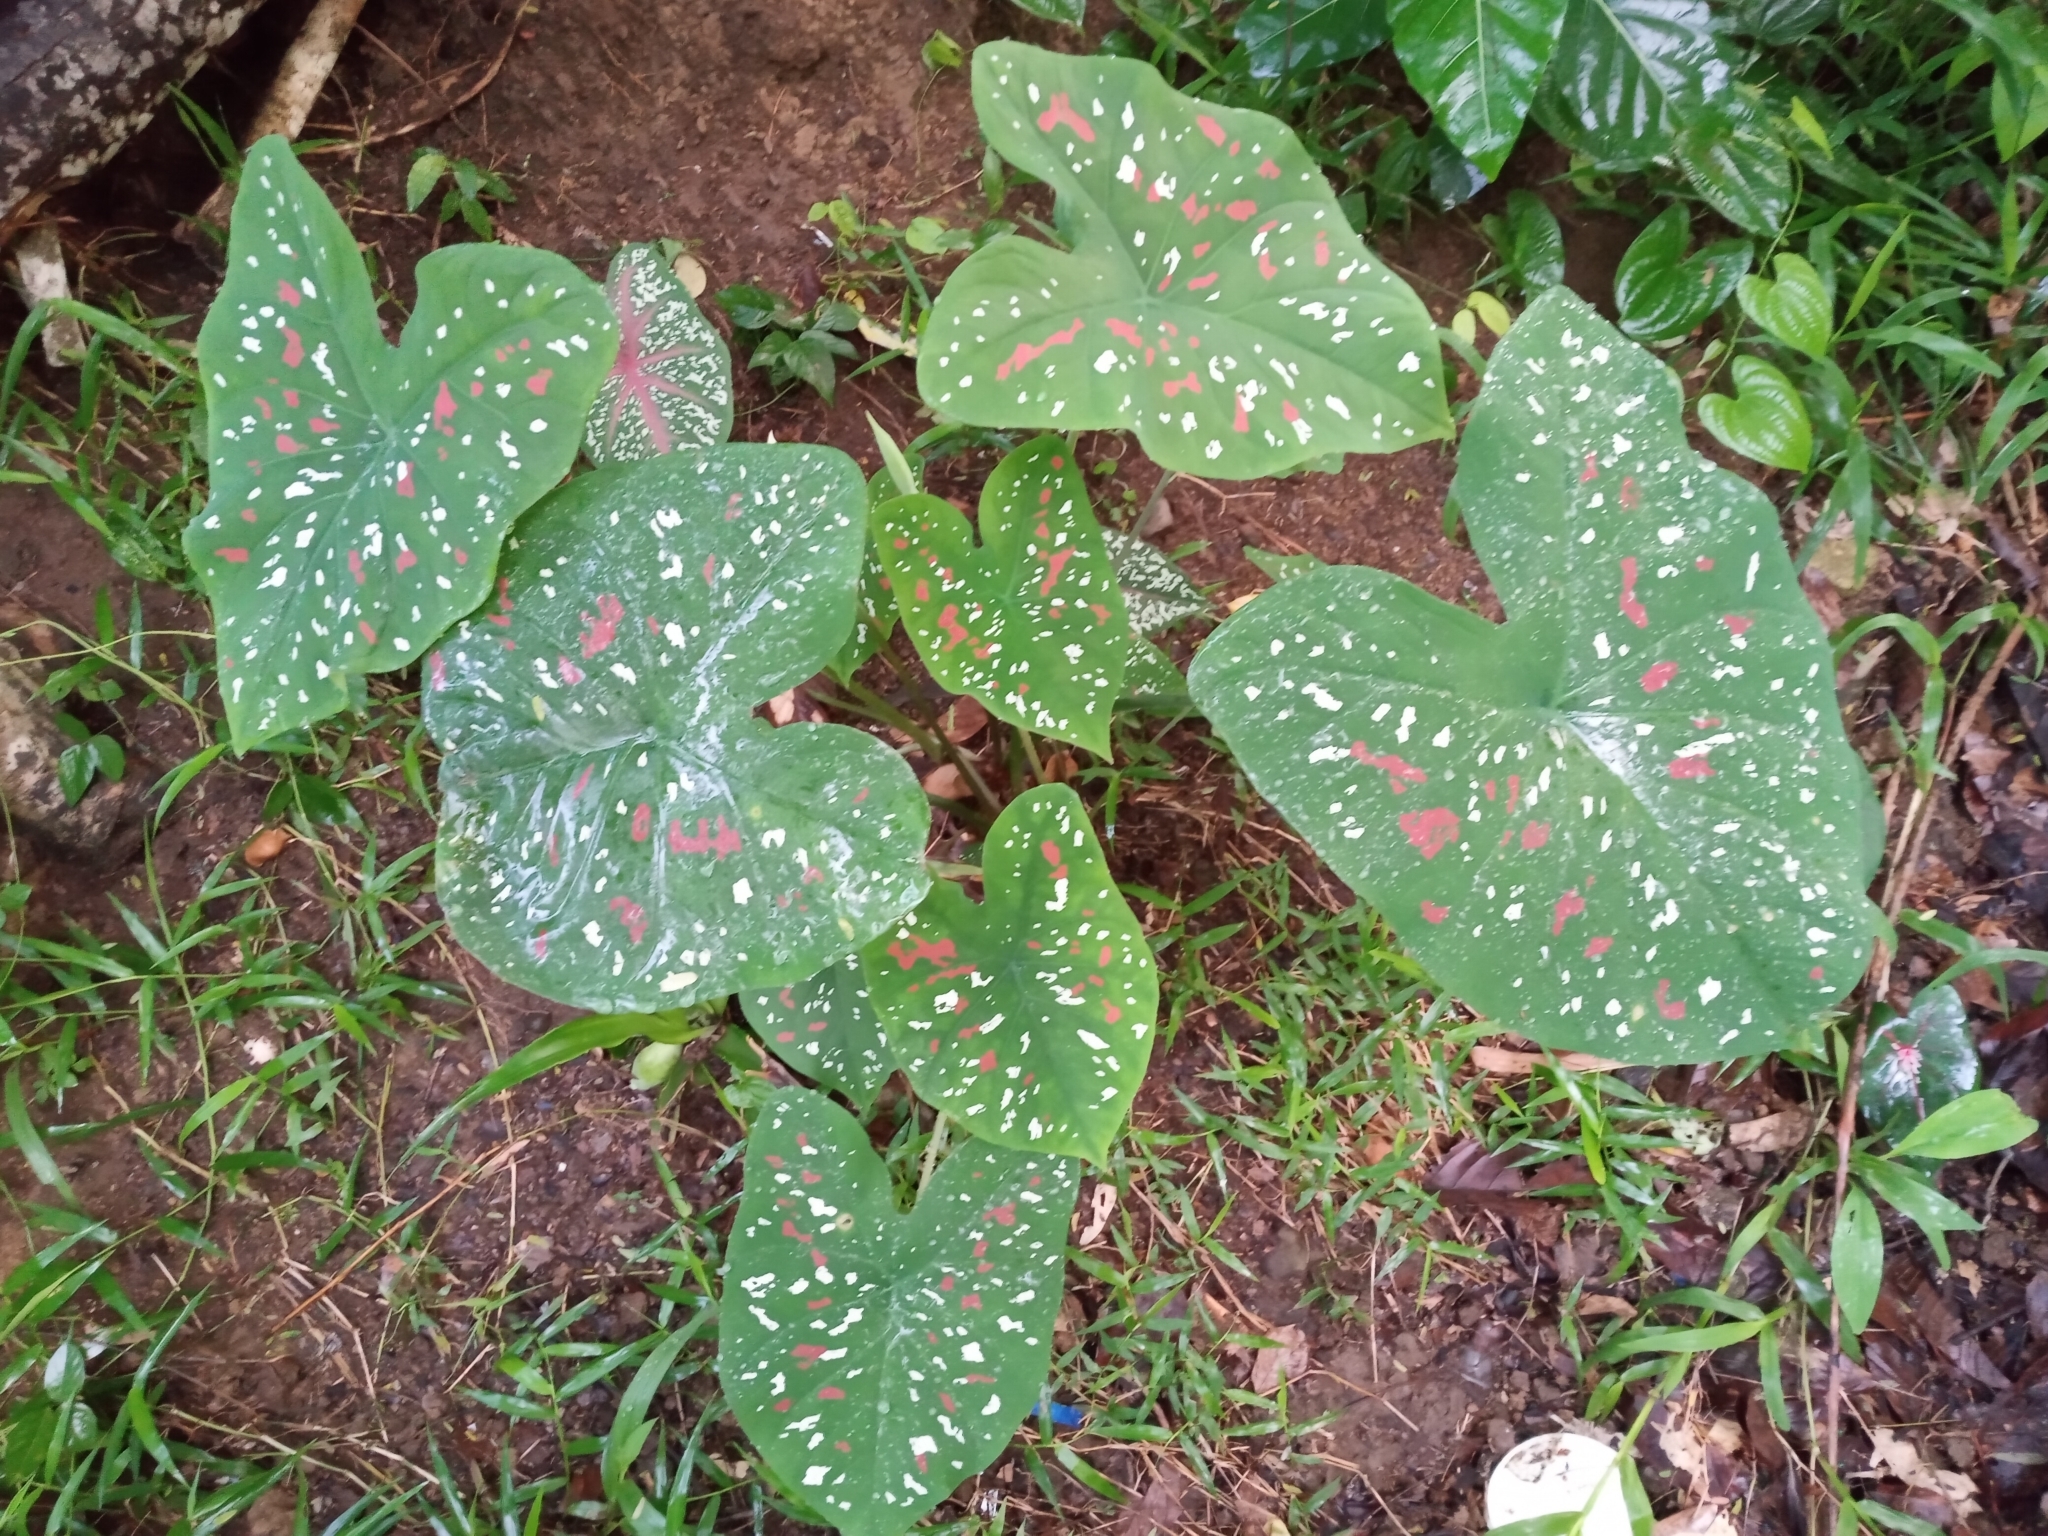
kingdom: Plantae
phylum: Tracheophyta
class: Liliopsida
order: Alismatales
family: Araceae
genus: Caladium
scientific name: Caladium bicolor
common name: Artist's pallet
